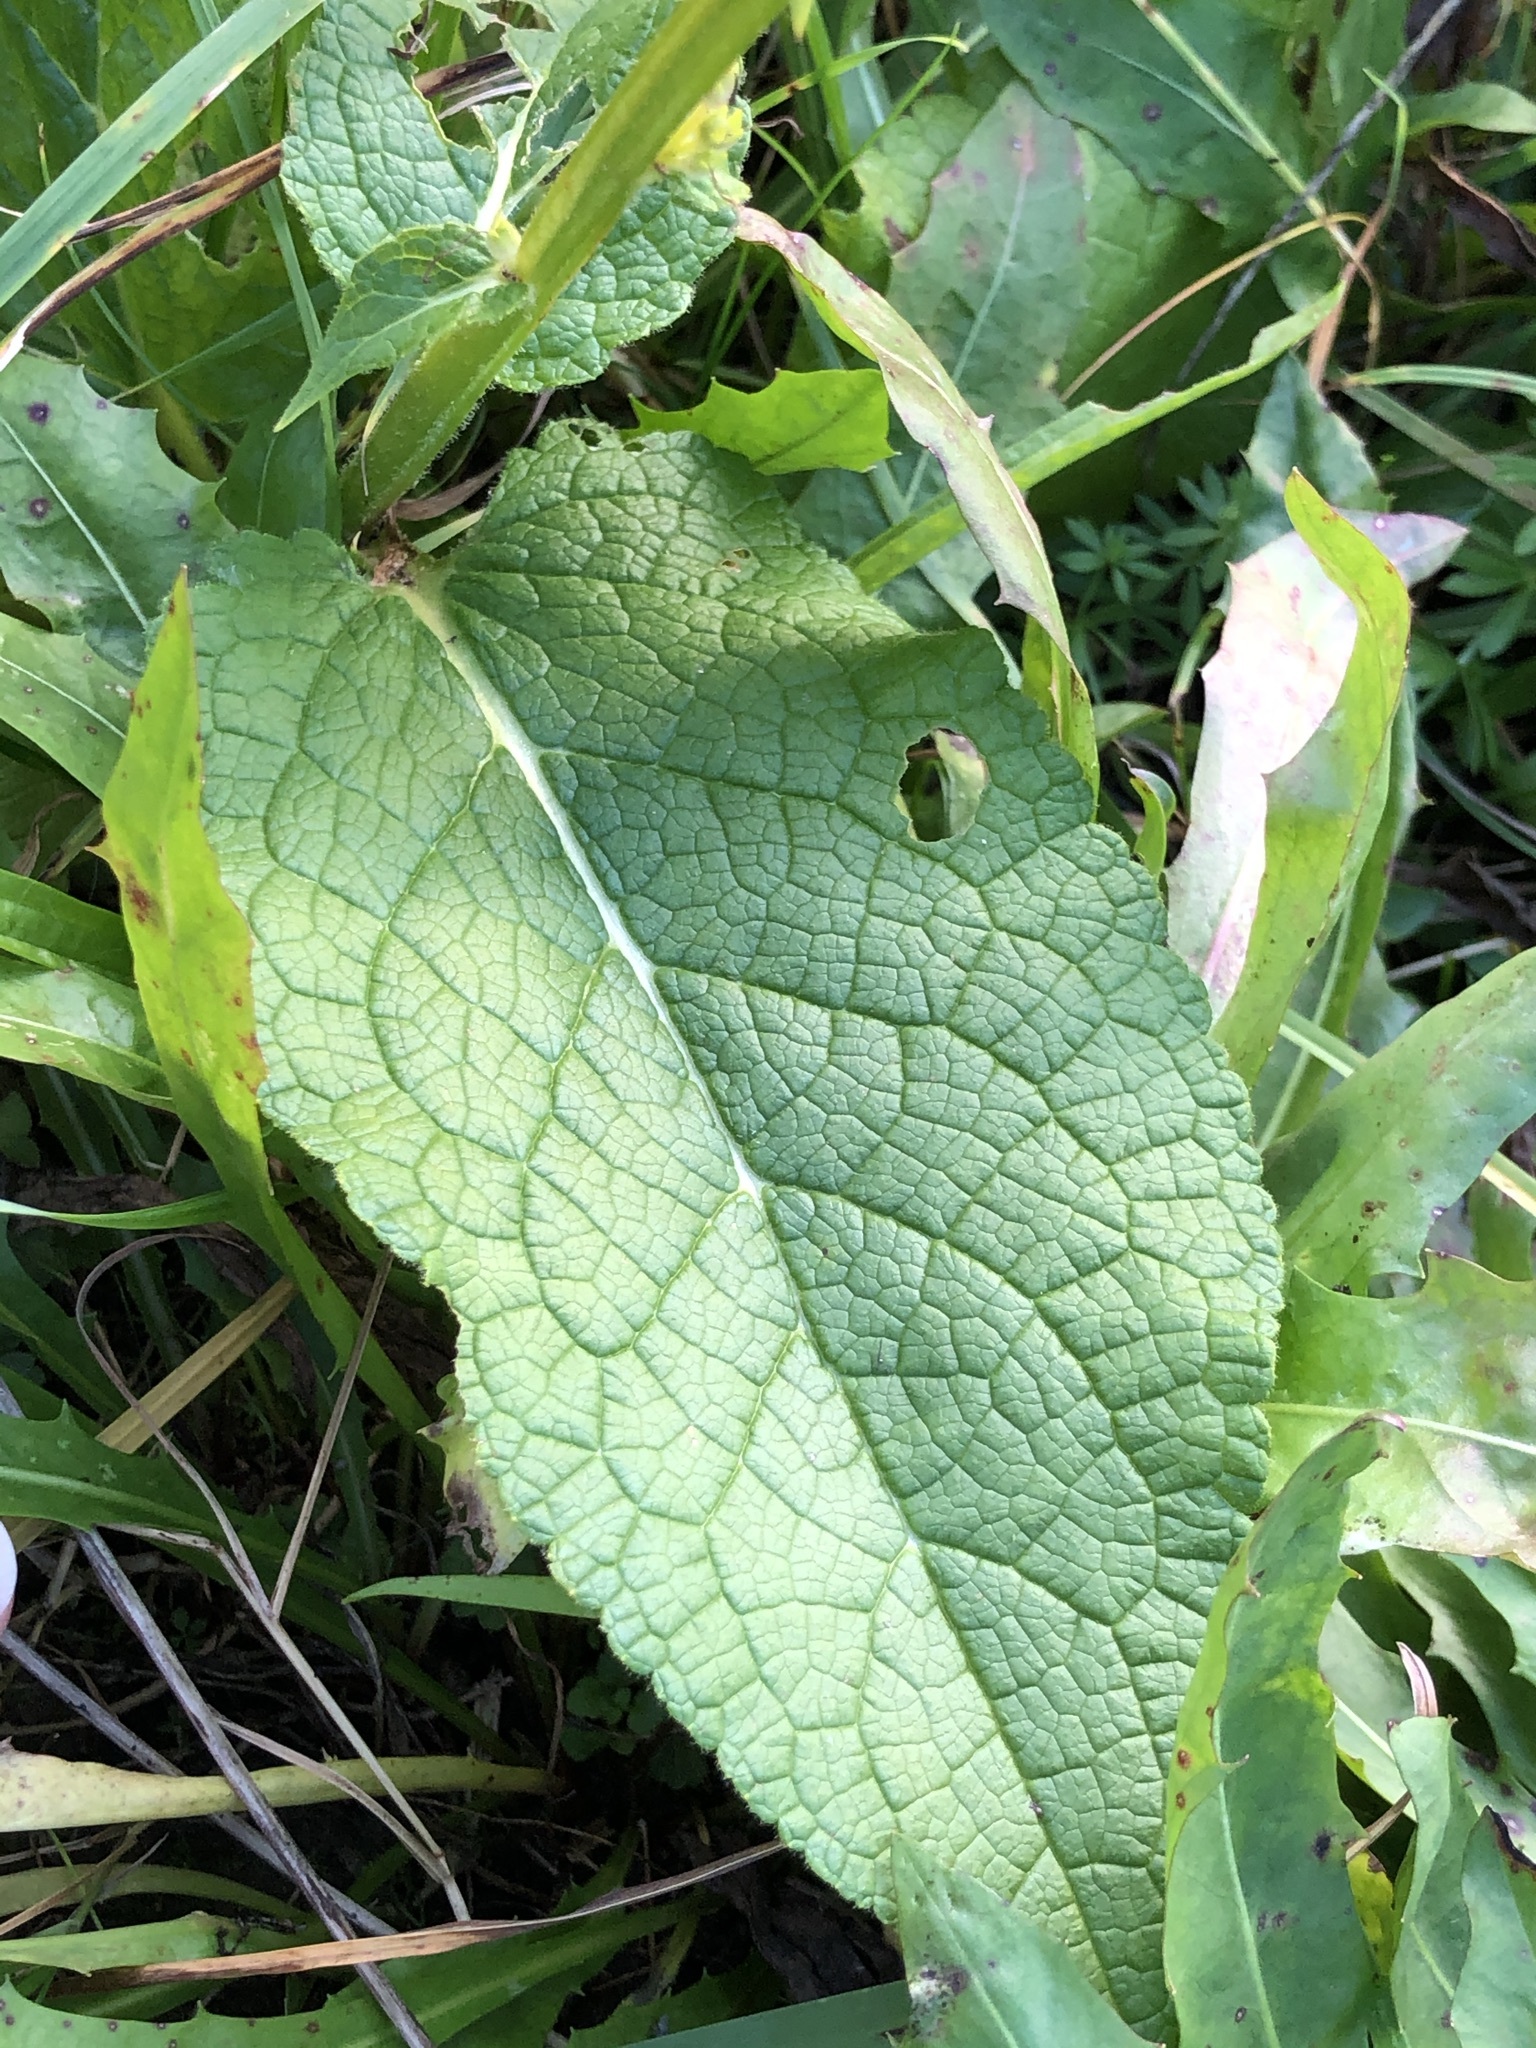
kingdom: Plantae
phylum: Tracheophyta
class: Magnoliopsida
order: Lamiales
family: Scrophulariaceae
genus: Verbascum
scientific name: Verbascum lychnitis
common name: White mullein
